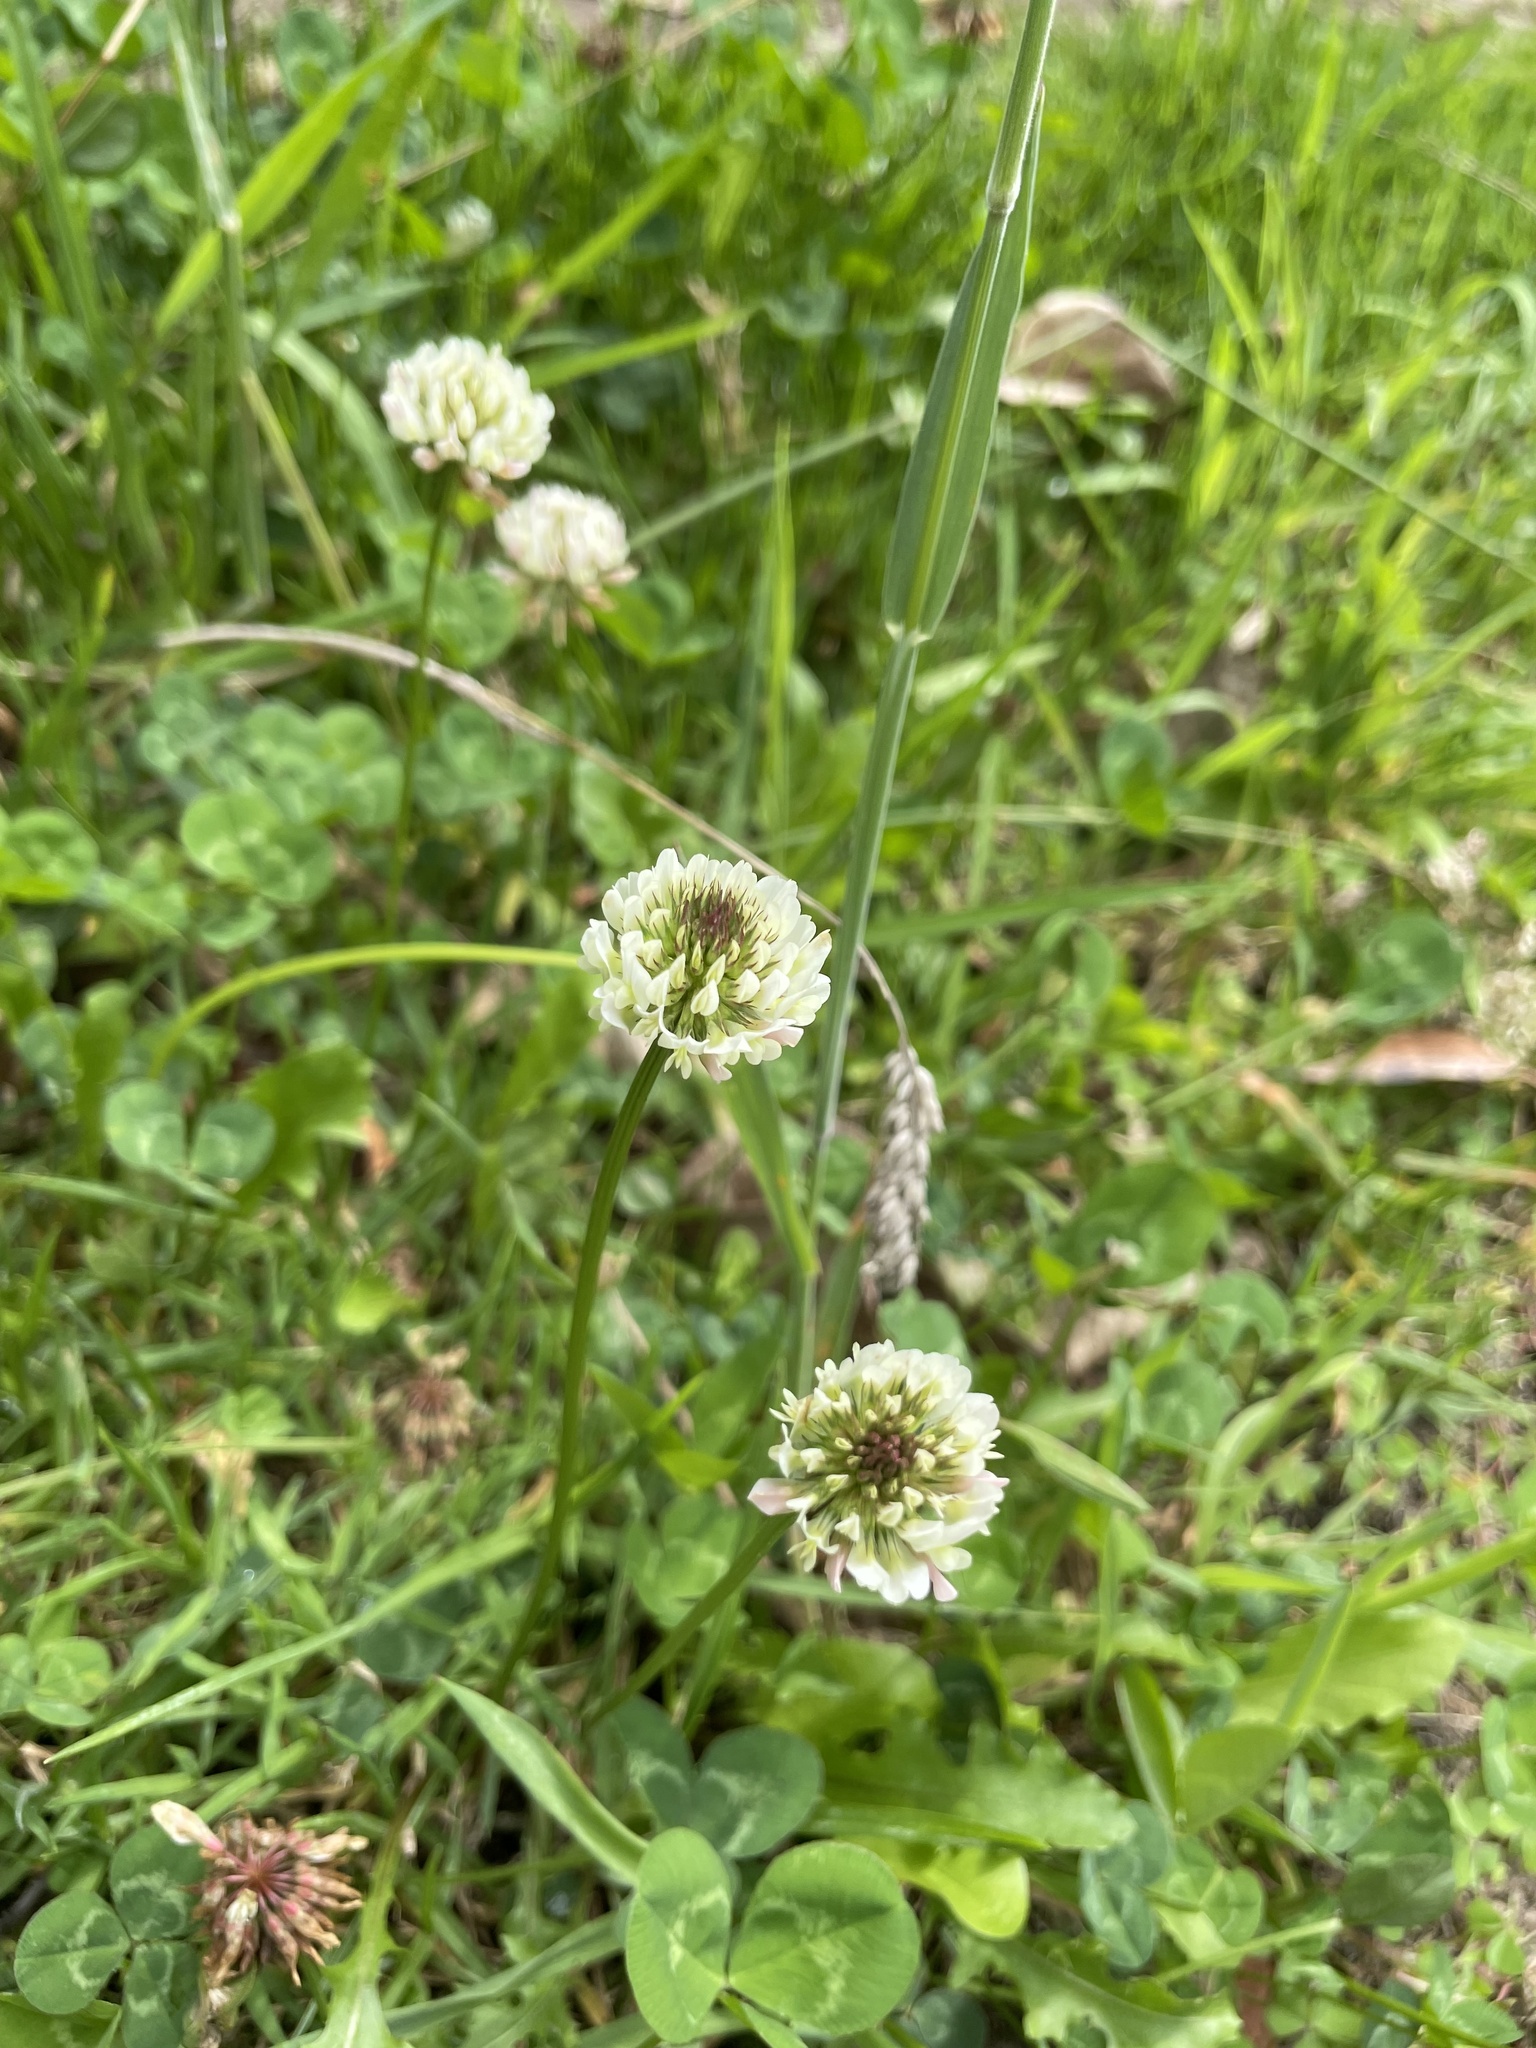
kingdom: Plantae
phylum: Tracheophyta
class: Magnoliopsida
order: Fabales
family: Fabaceae
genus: Trifolium
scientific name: Trifolium repens
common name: White clover
